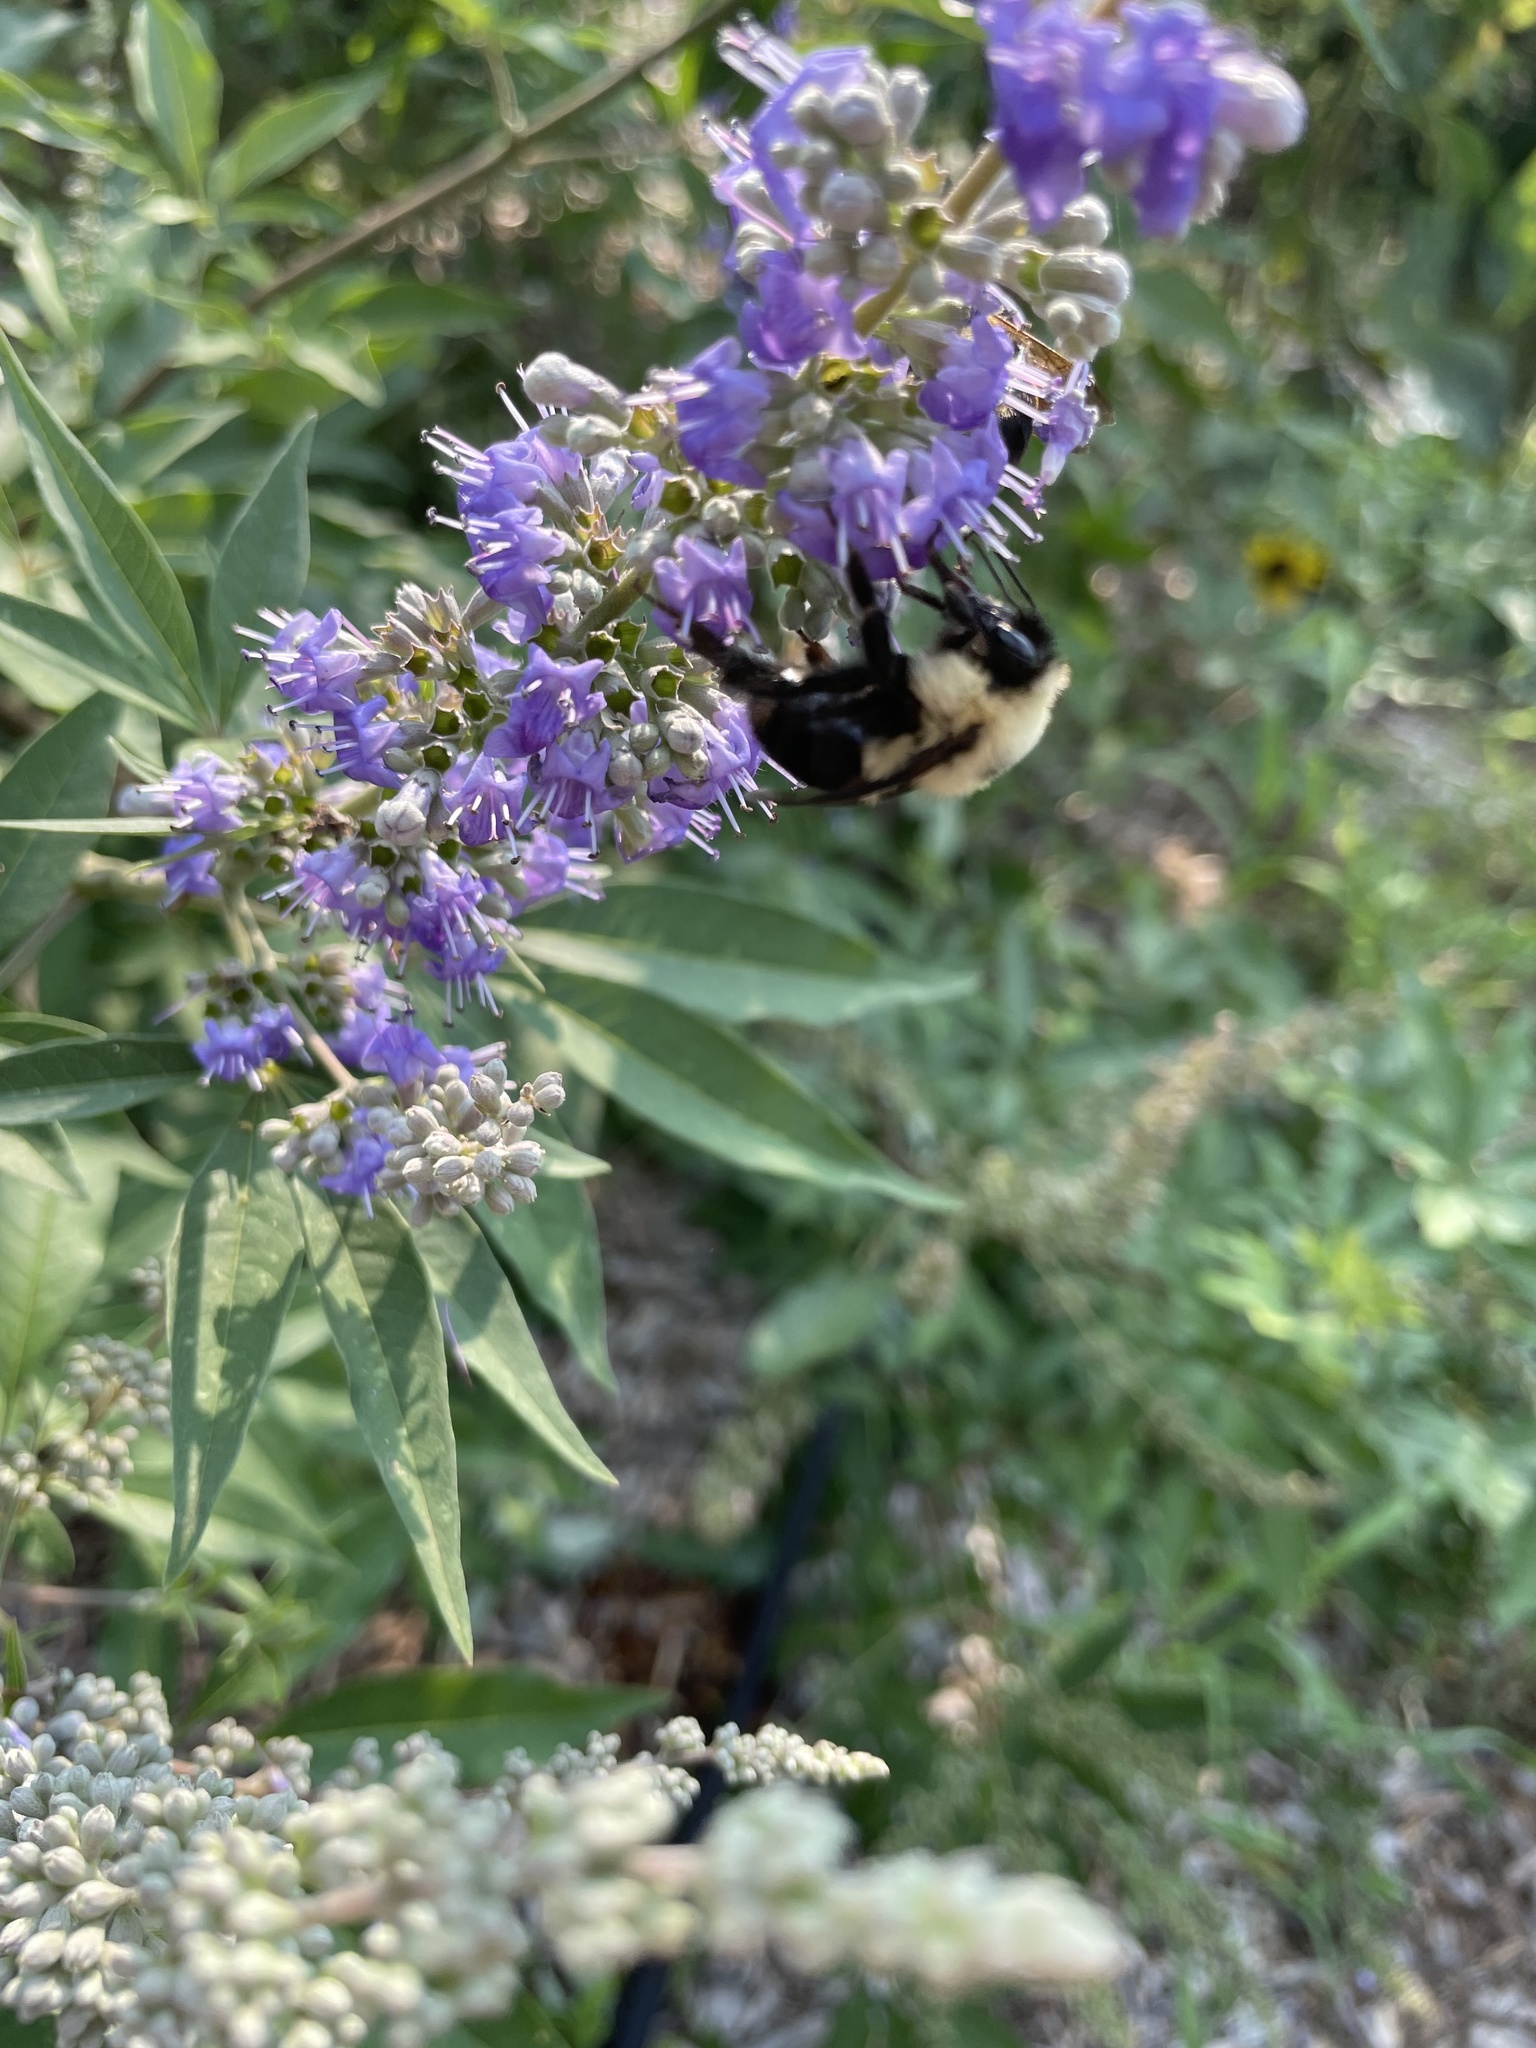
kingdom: Animalia
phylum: Arthropoda
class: Insecta
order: Hymenoptera
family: Apidae
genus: Bombus
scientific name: Bombus bimaculatus
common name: Two-spotted bumble bee
